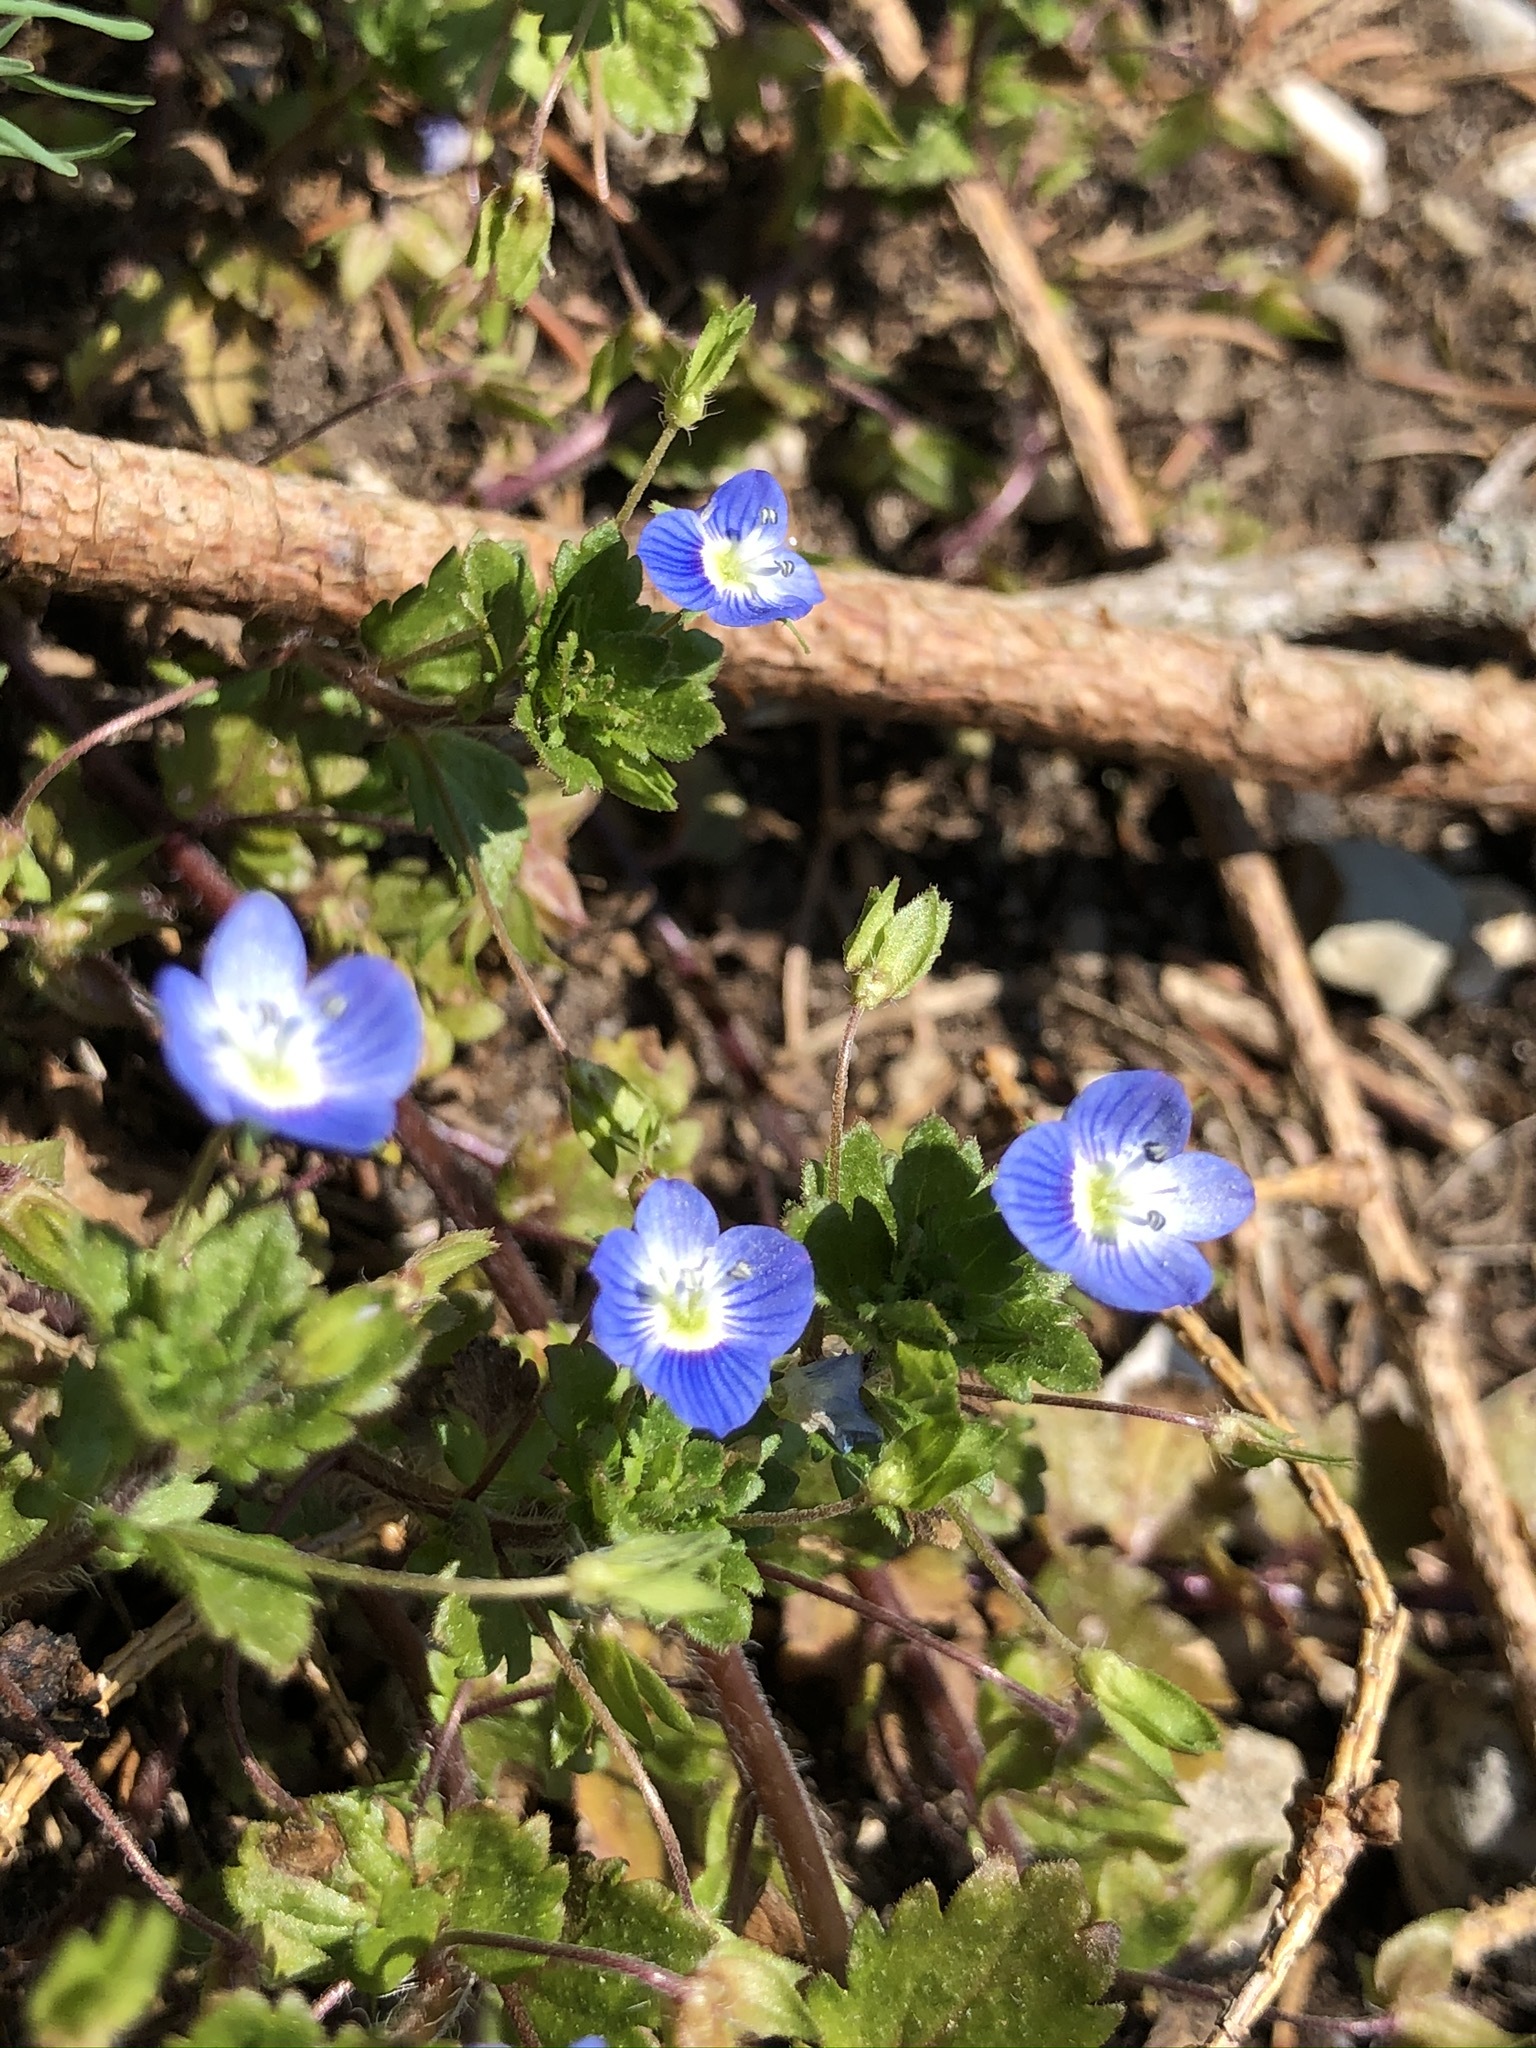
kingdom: Plantae
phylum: Tracheophyta
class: Magnoliopsida
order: Lamiales
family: Plantaginaceae
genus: Veronica
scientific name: Veronica persica
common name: Common field-speedwell
